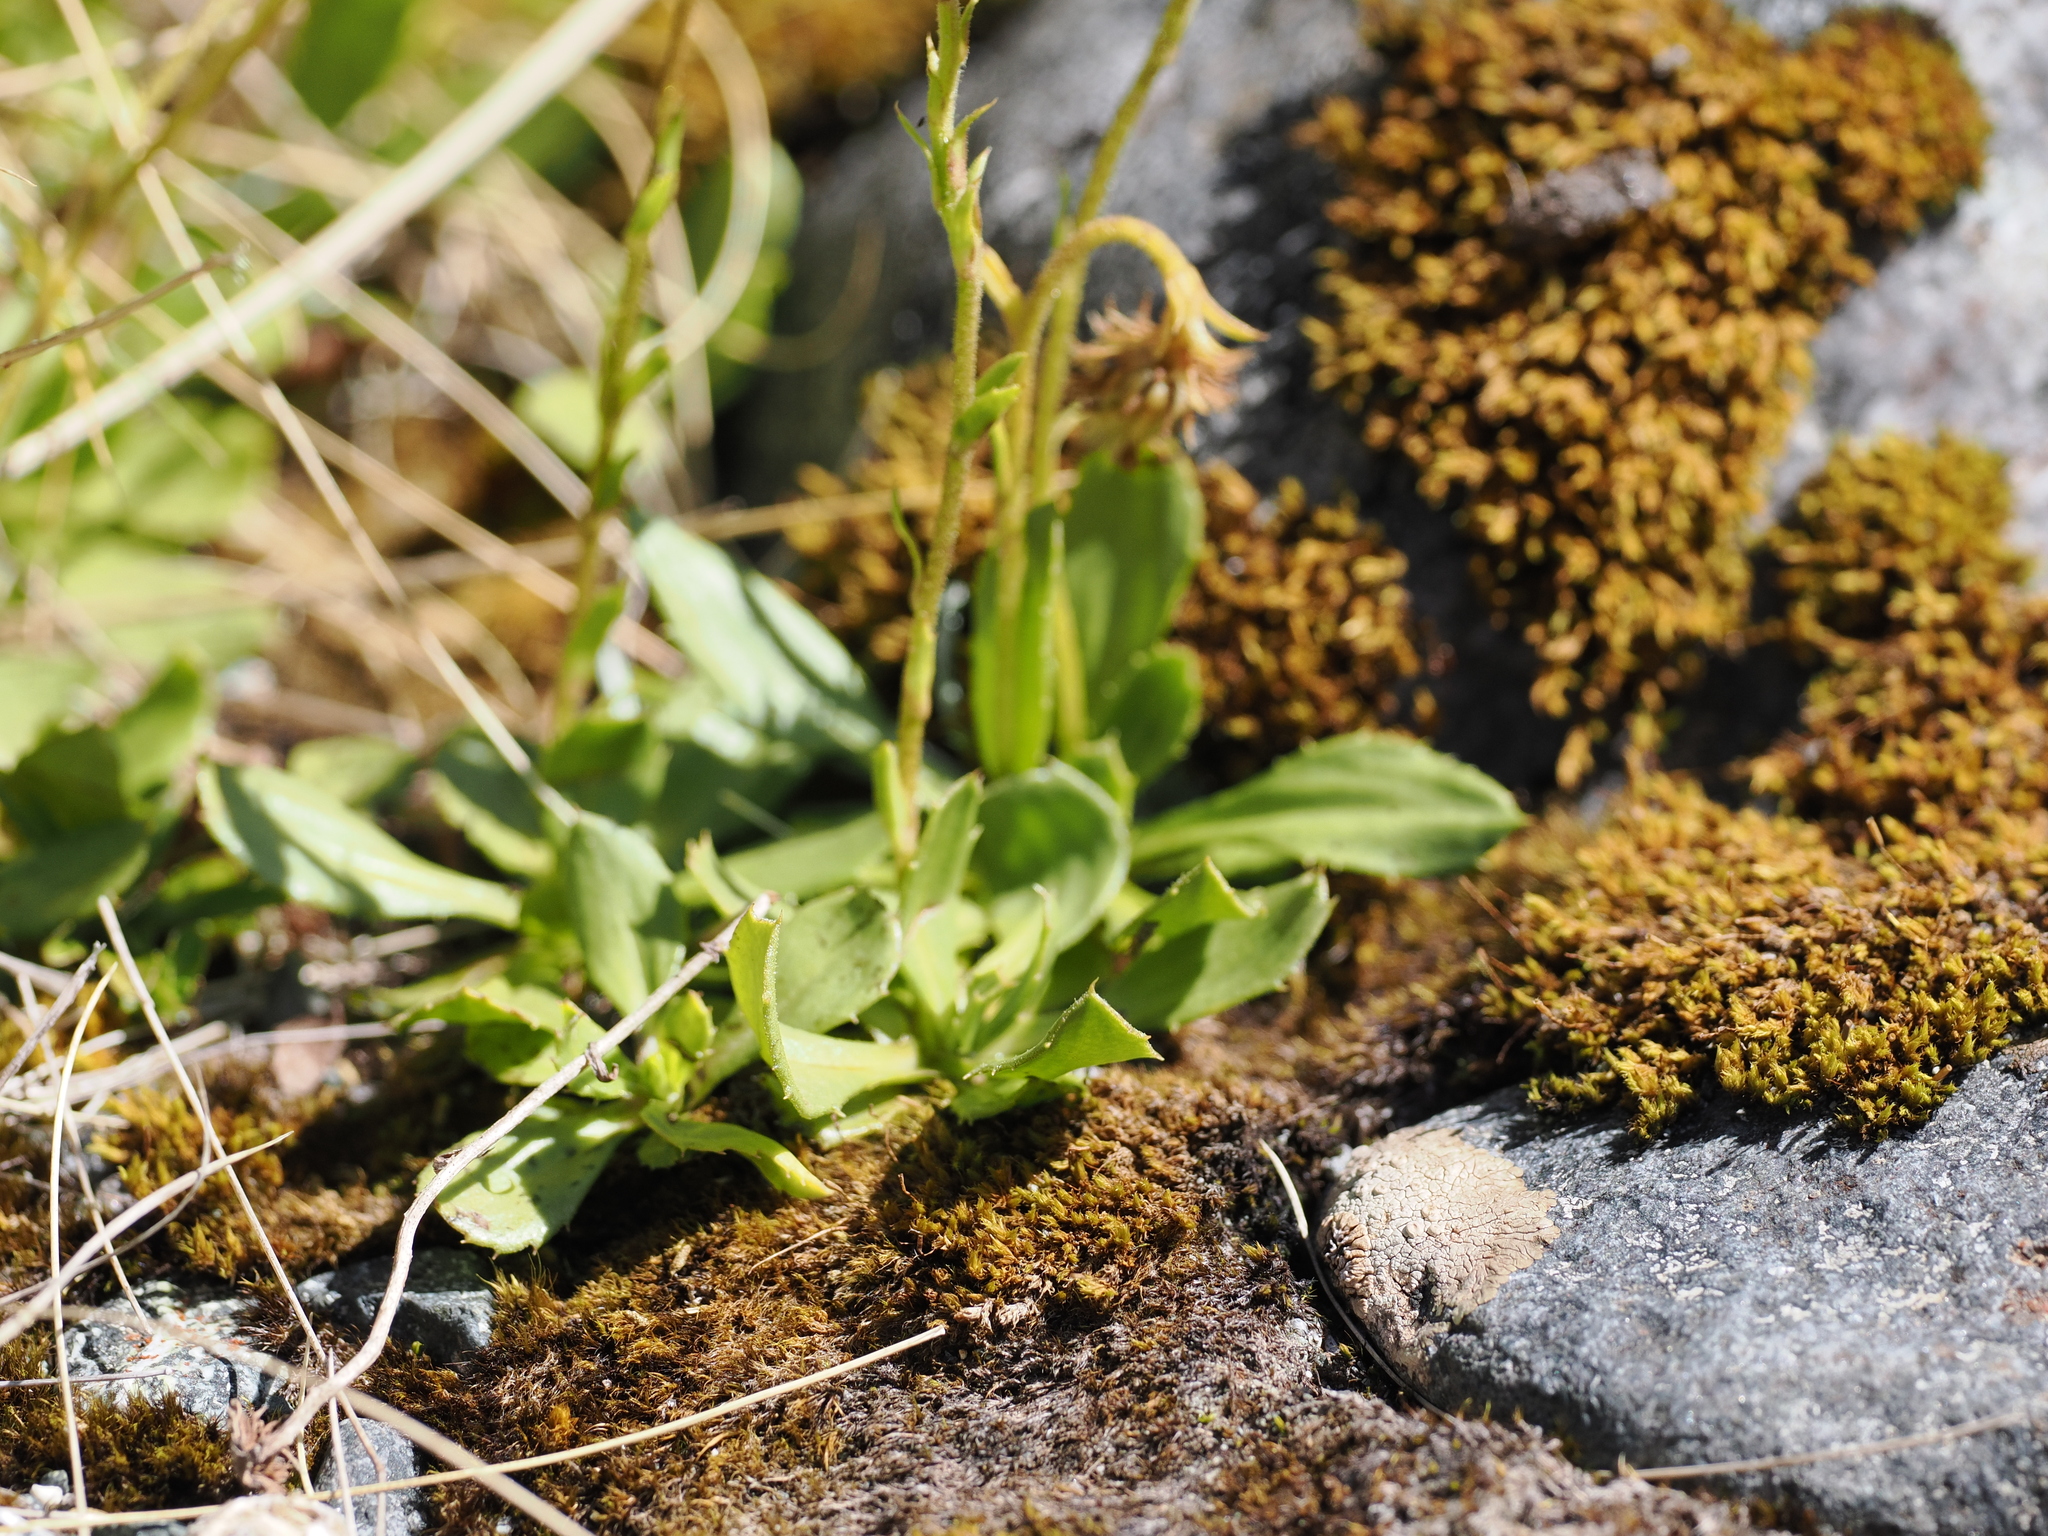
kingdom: Plantae
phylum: Tracheophyta
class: Magnoliopsida
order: Asterales
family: Asteraceae
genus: Celmisia
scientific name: Celmisia glandulosa
